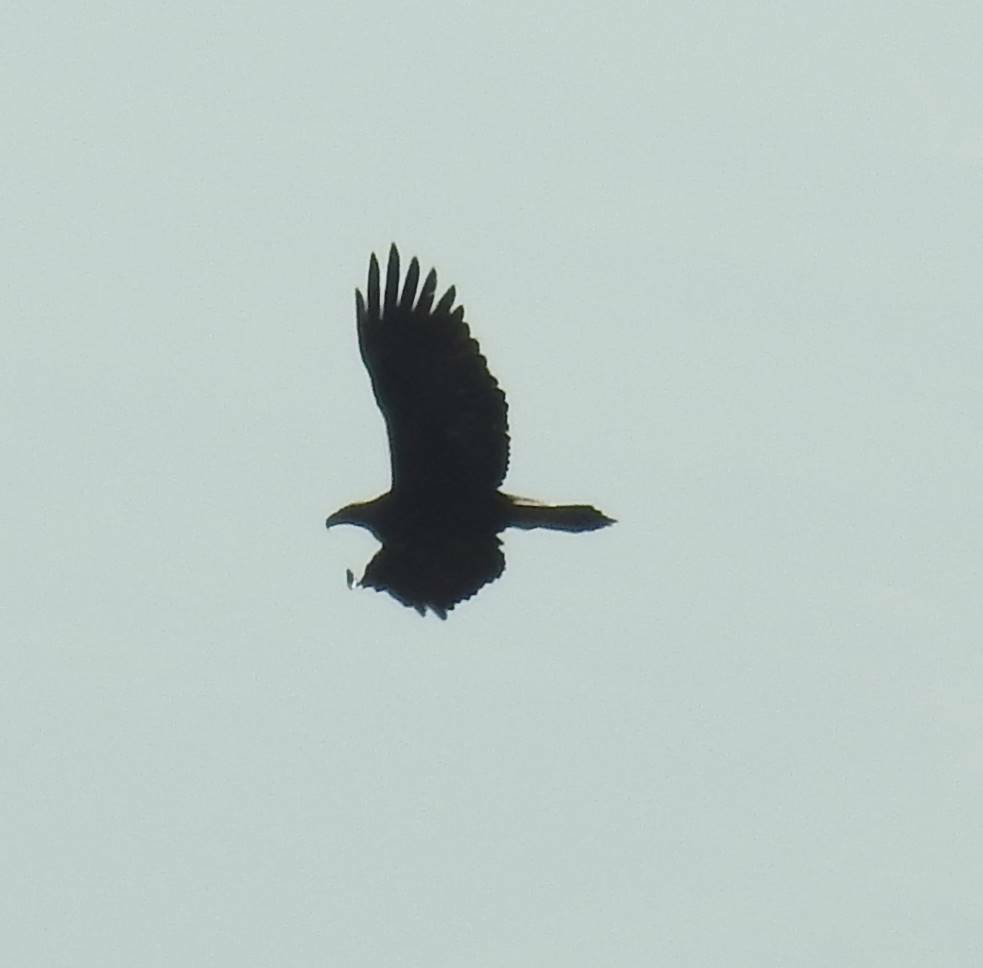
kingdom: Animalia
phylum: Chordata
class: Aves
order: Accipitriformes
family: Accipitridae
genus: Aquila
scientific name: Aquila chrysaetos
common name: Golden eagle
